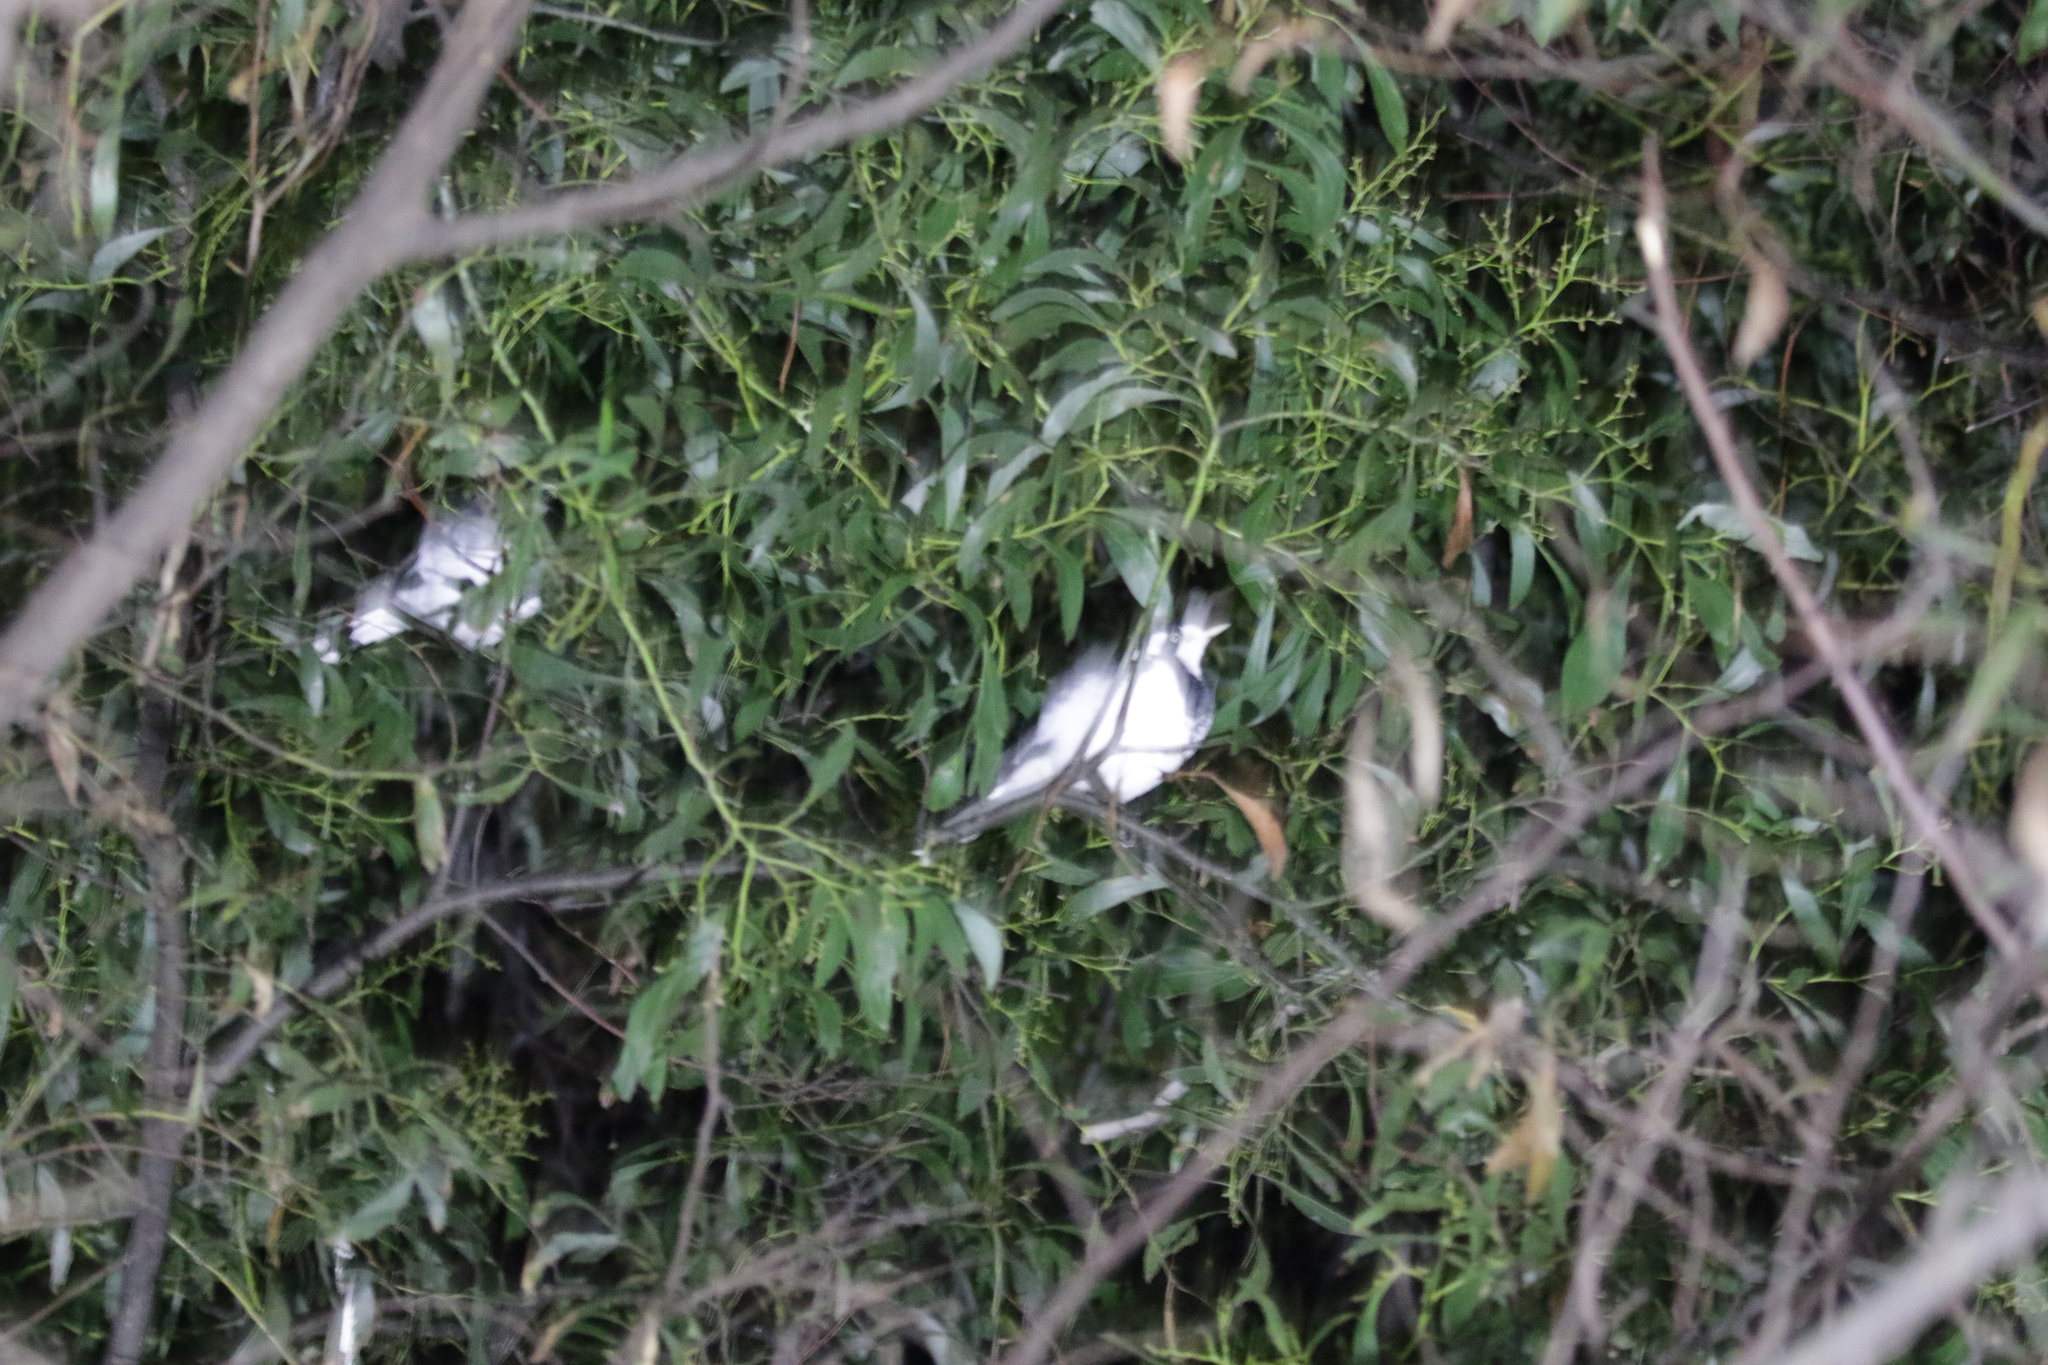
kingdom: Animalia
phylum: Chordata
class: Aves
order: Passeriformes
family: Monarchidae
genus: Grallina
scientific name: Grallina cyanoleuca
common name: Magpie-lark
